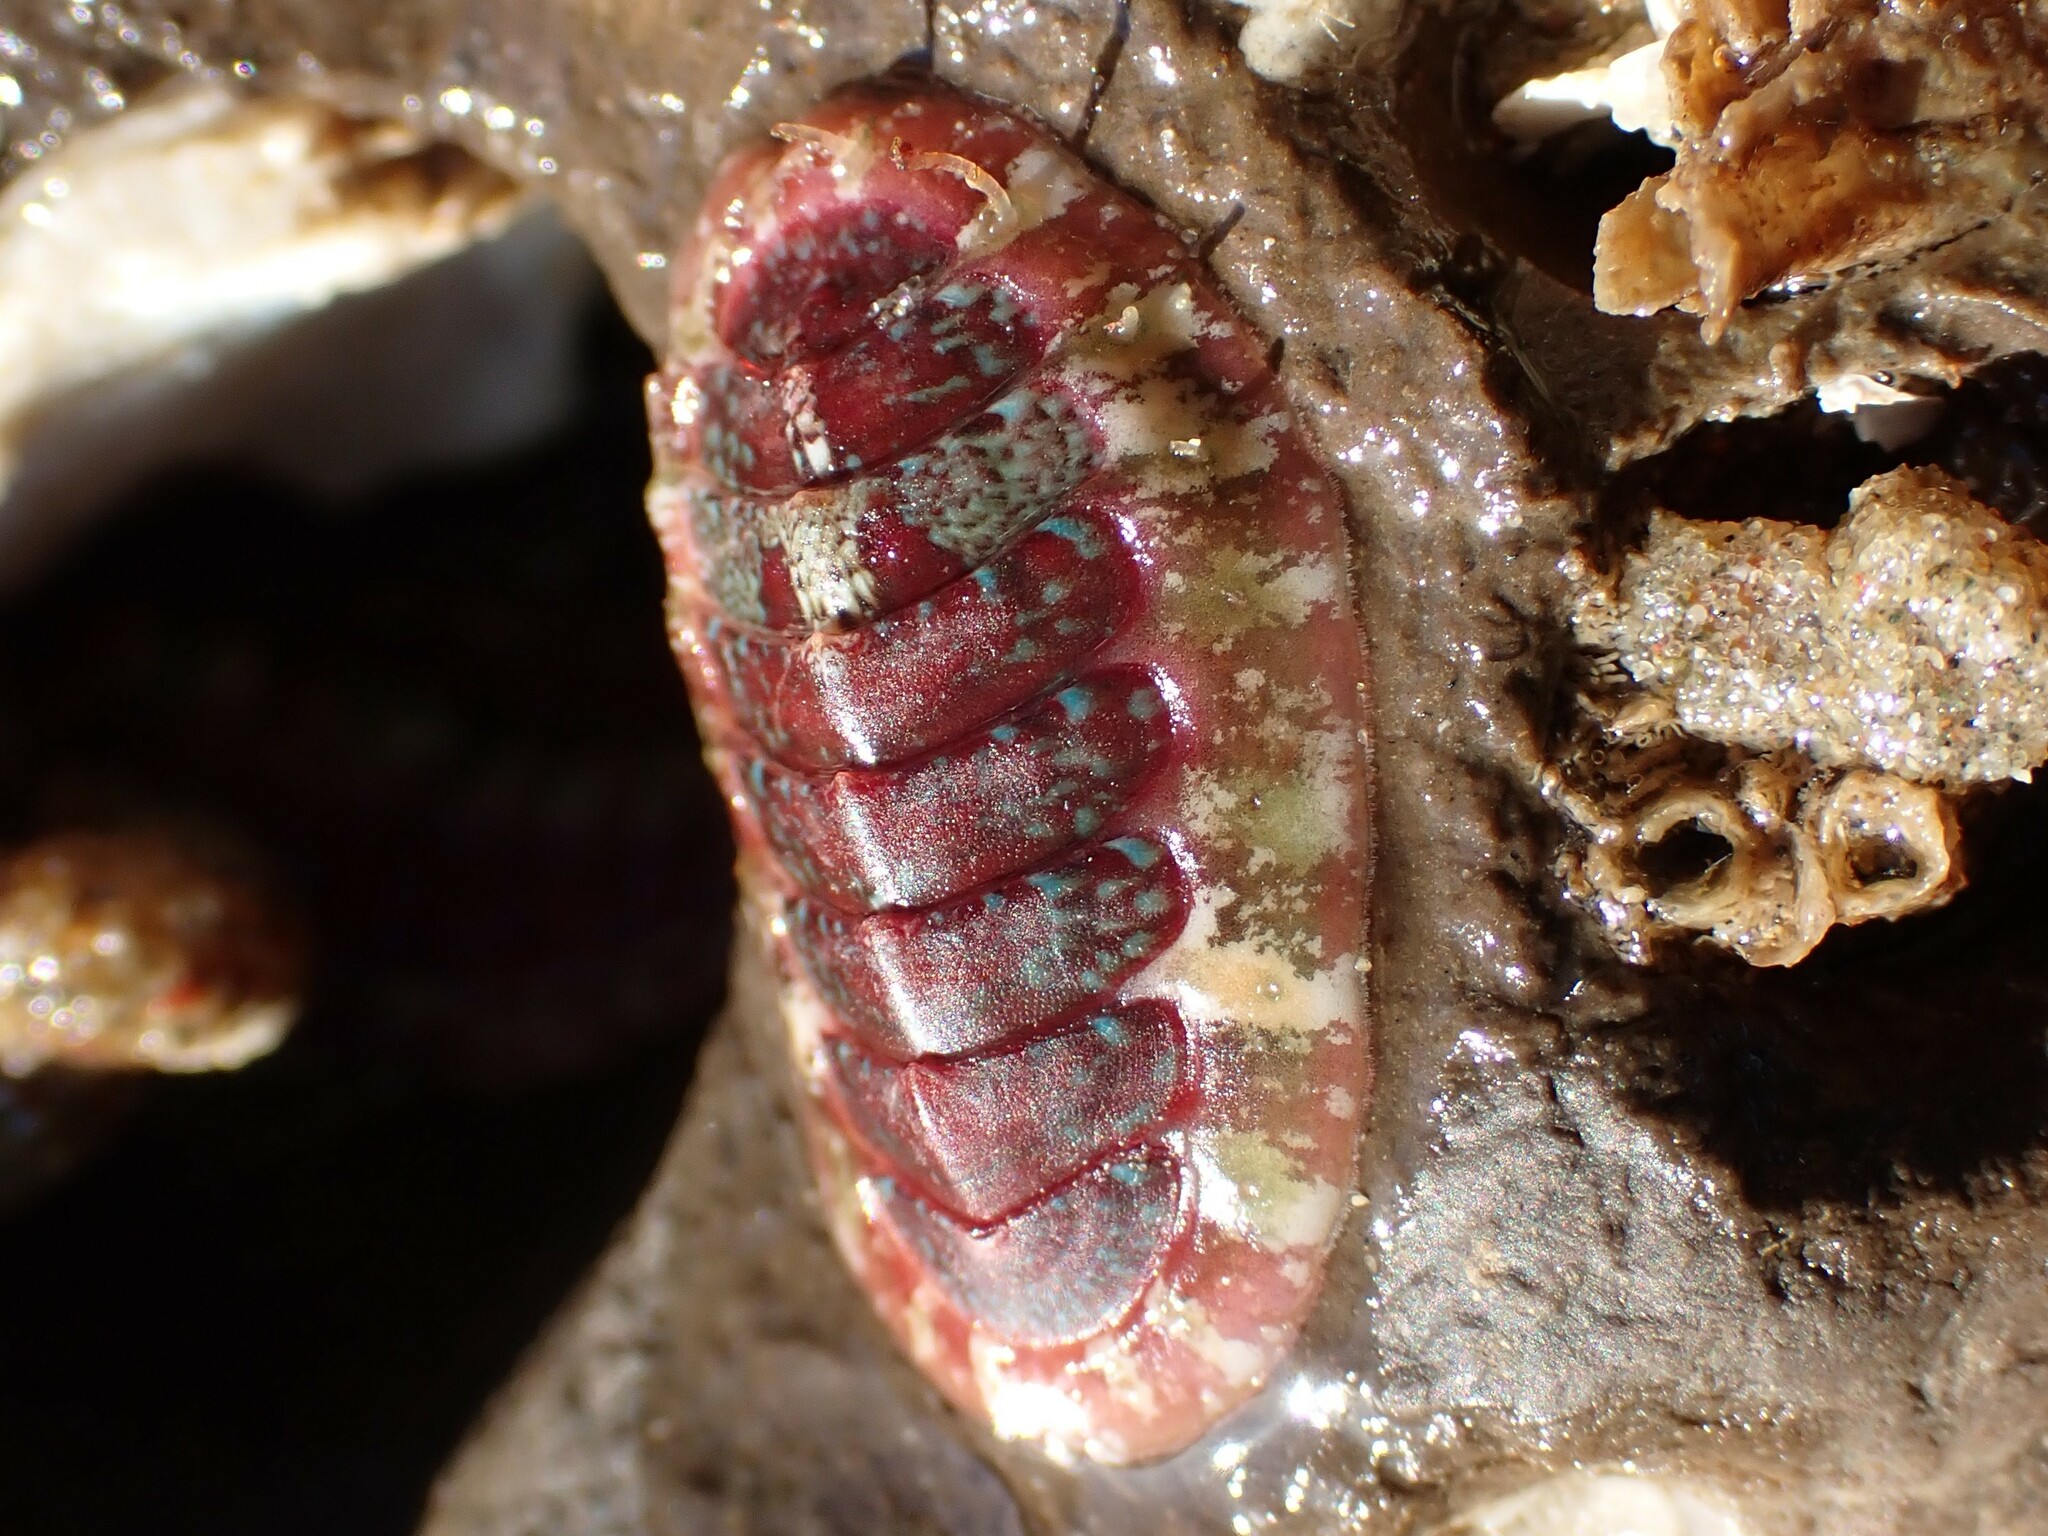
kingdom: Animalia
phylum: Mollusca
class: Polyplacophora
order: Chitonida
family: Mopaliidae
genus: Dendrochiton
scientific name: Dendrochiton flectens
